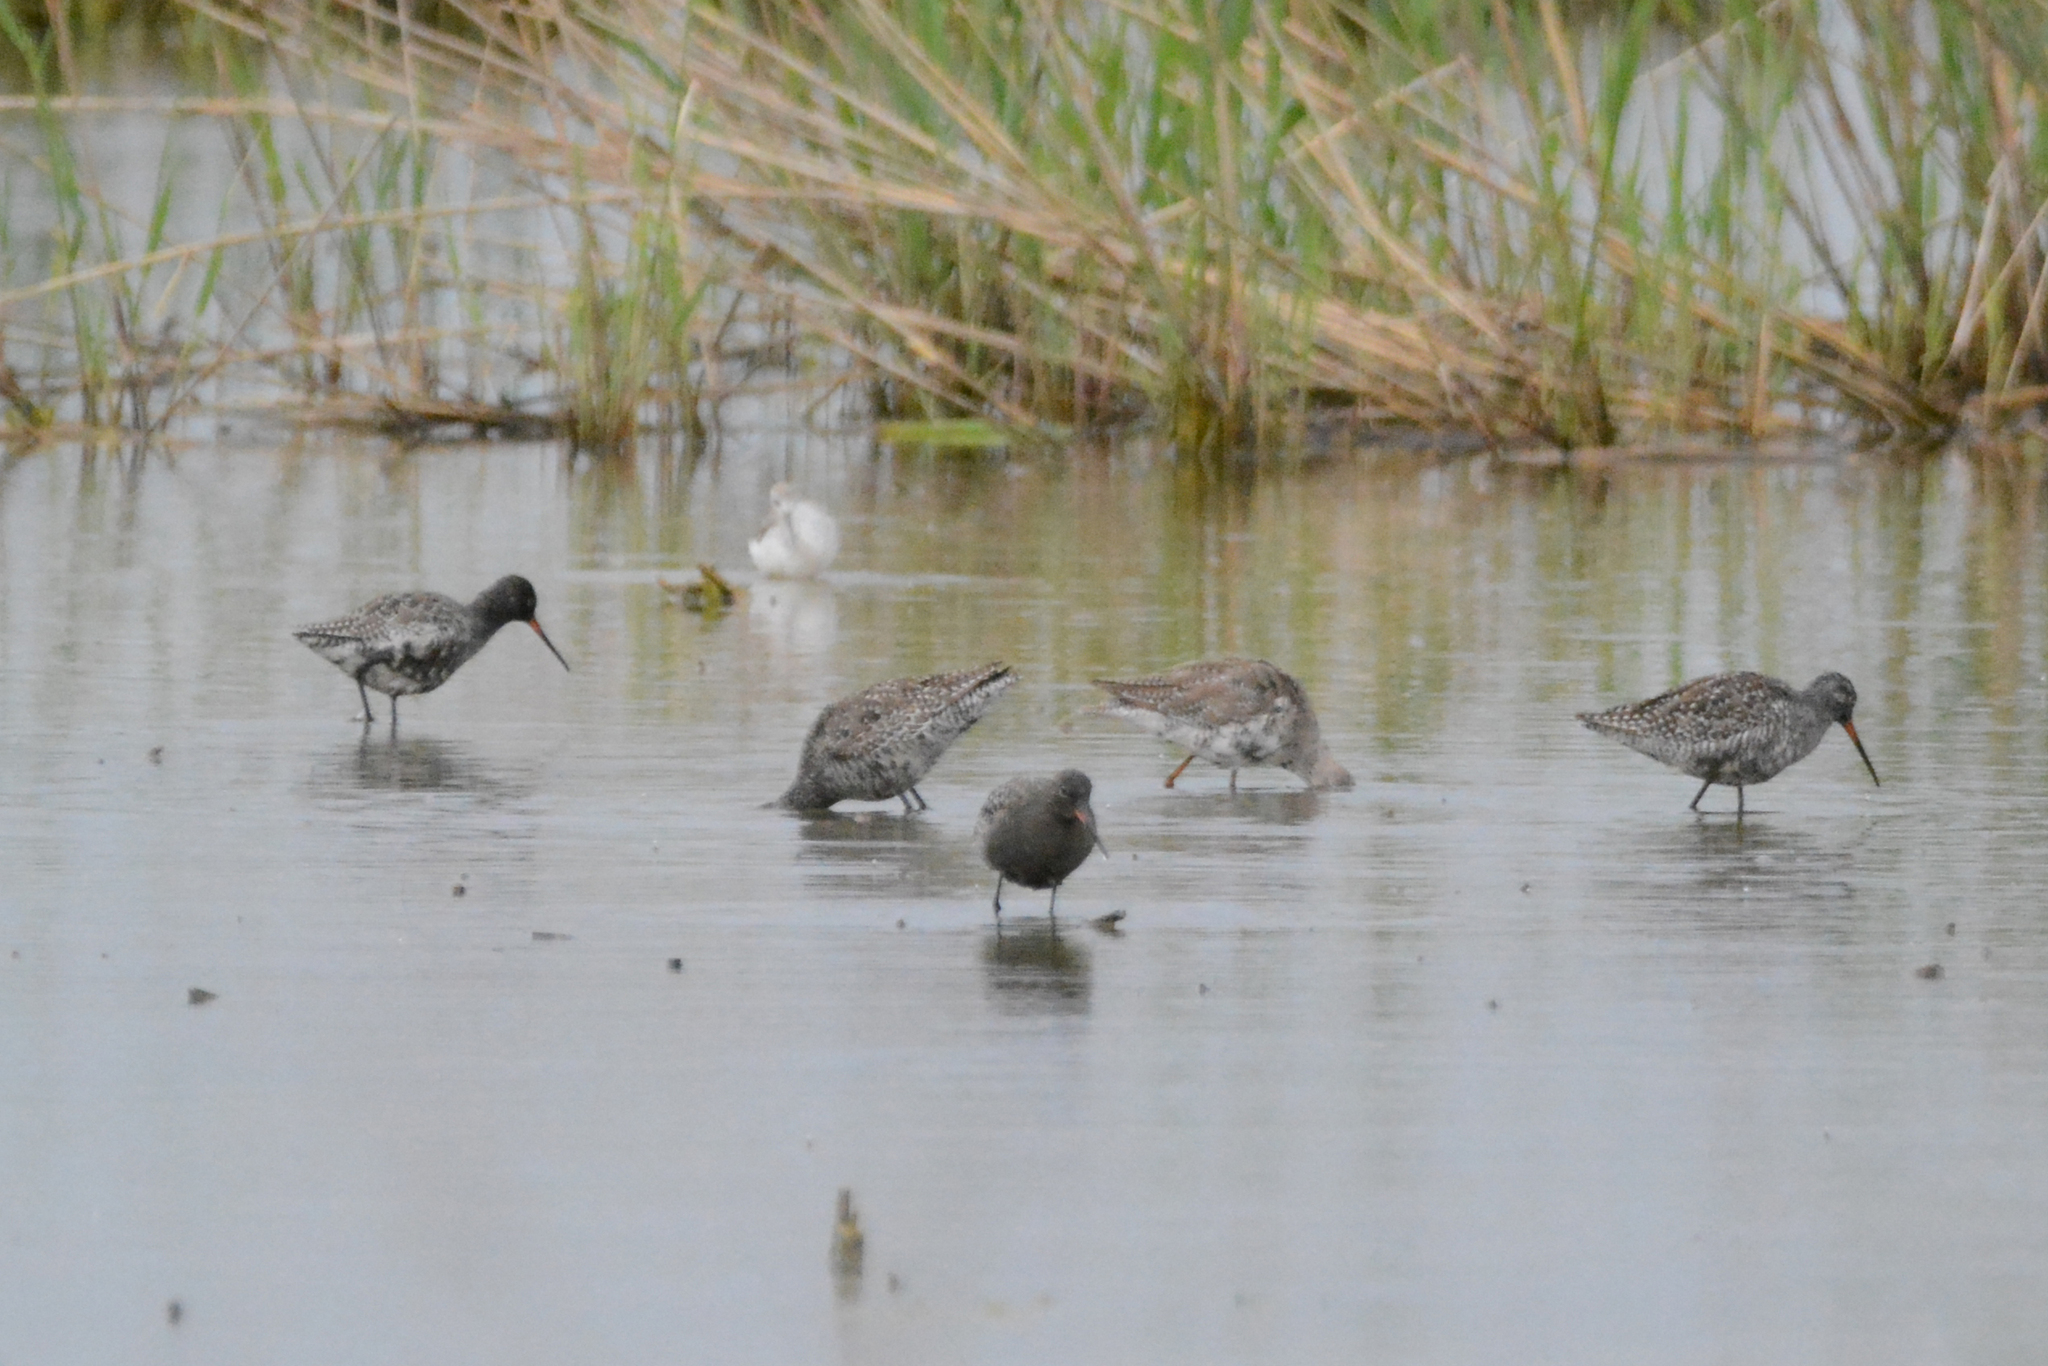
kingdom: Animalia
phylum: Chordata
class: Aves
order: Charadriiformes
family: Scolopacidae
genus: Tringa
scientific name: Tringa erythropus
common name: Spotted redshank
